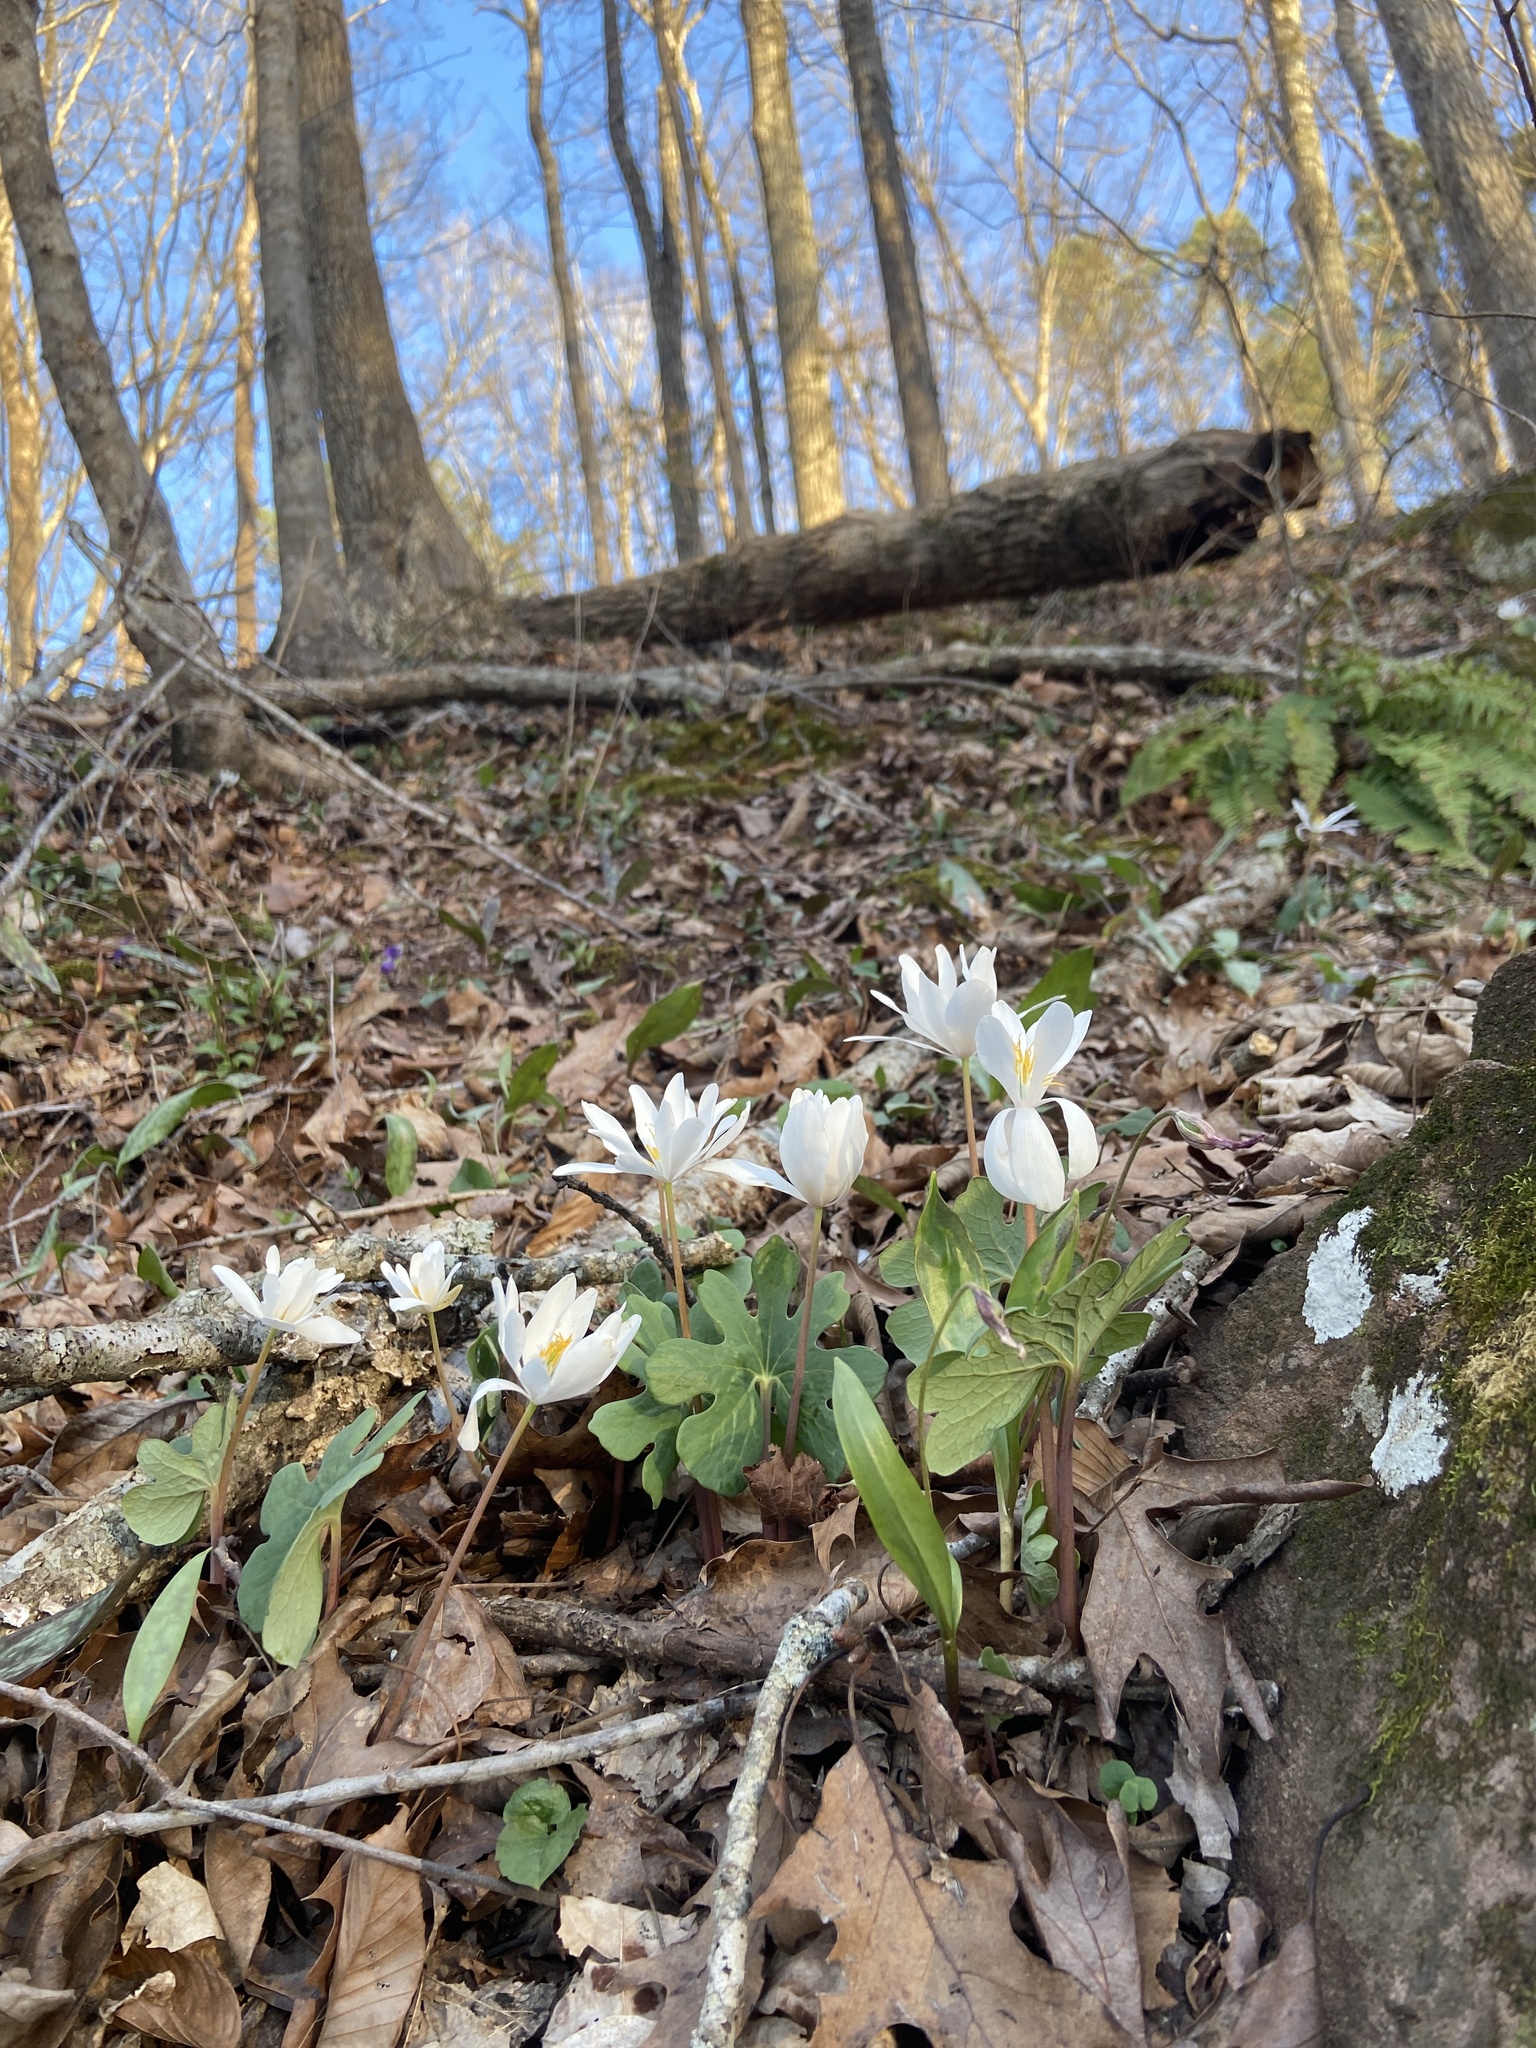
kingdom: Plantae
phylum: Tracheophyta
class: Magnoliopsida
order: Ranunculales
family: Papaveraceae
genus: Sanguinaria
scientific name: Sanguinaria canadensis
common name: Bloodroot
